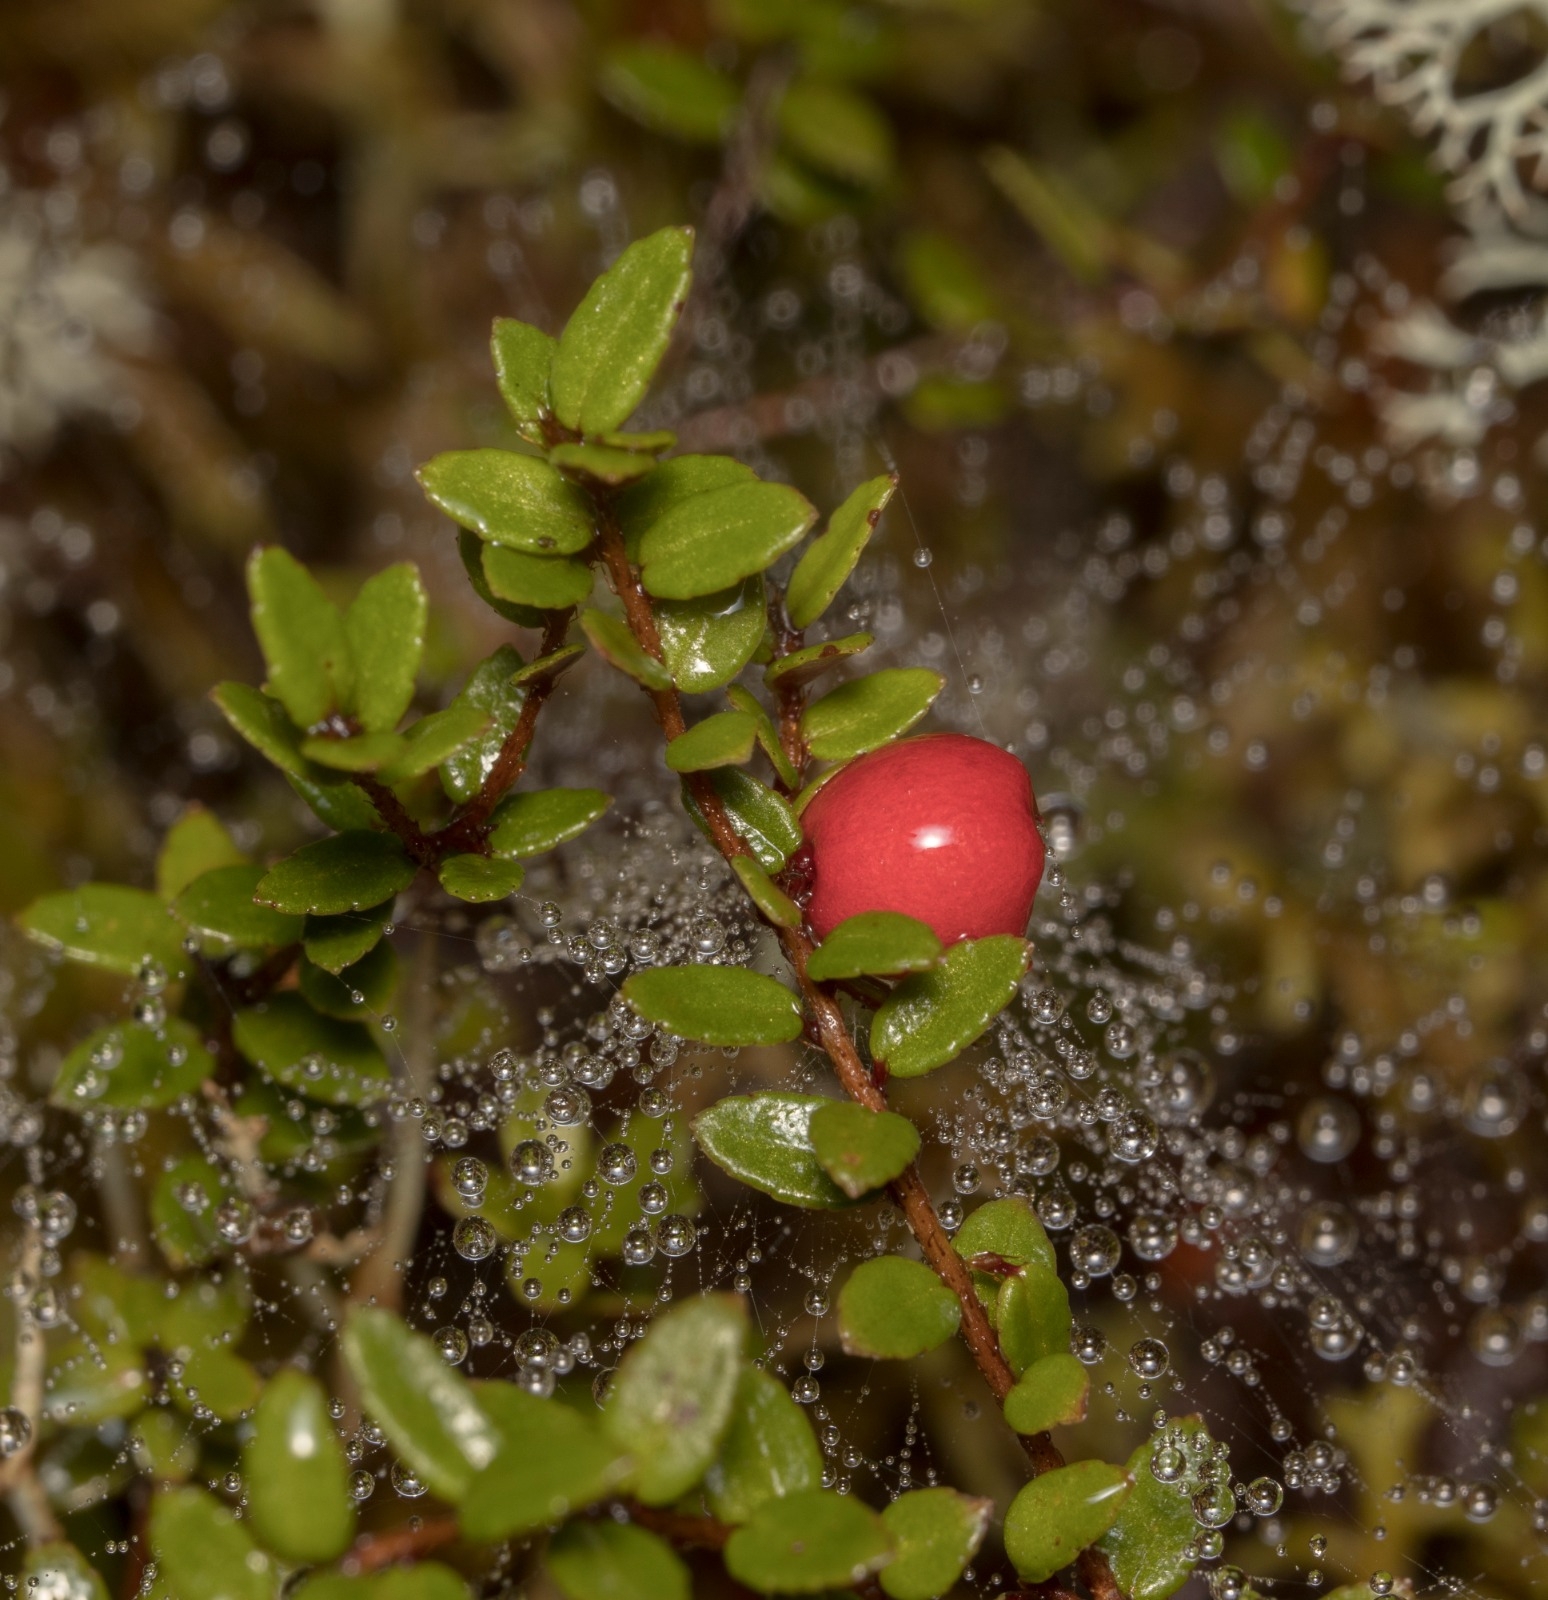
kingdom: Plantae
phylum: Tracheophyta
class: Magnoliopsida
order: Ericales
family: Ericaceae
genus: Gaultheria
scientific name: Gaultheria antarctica
